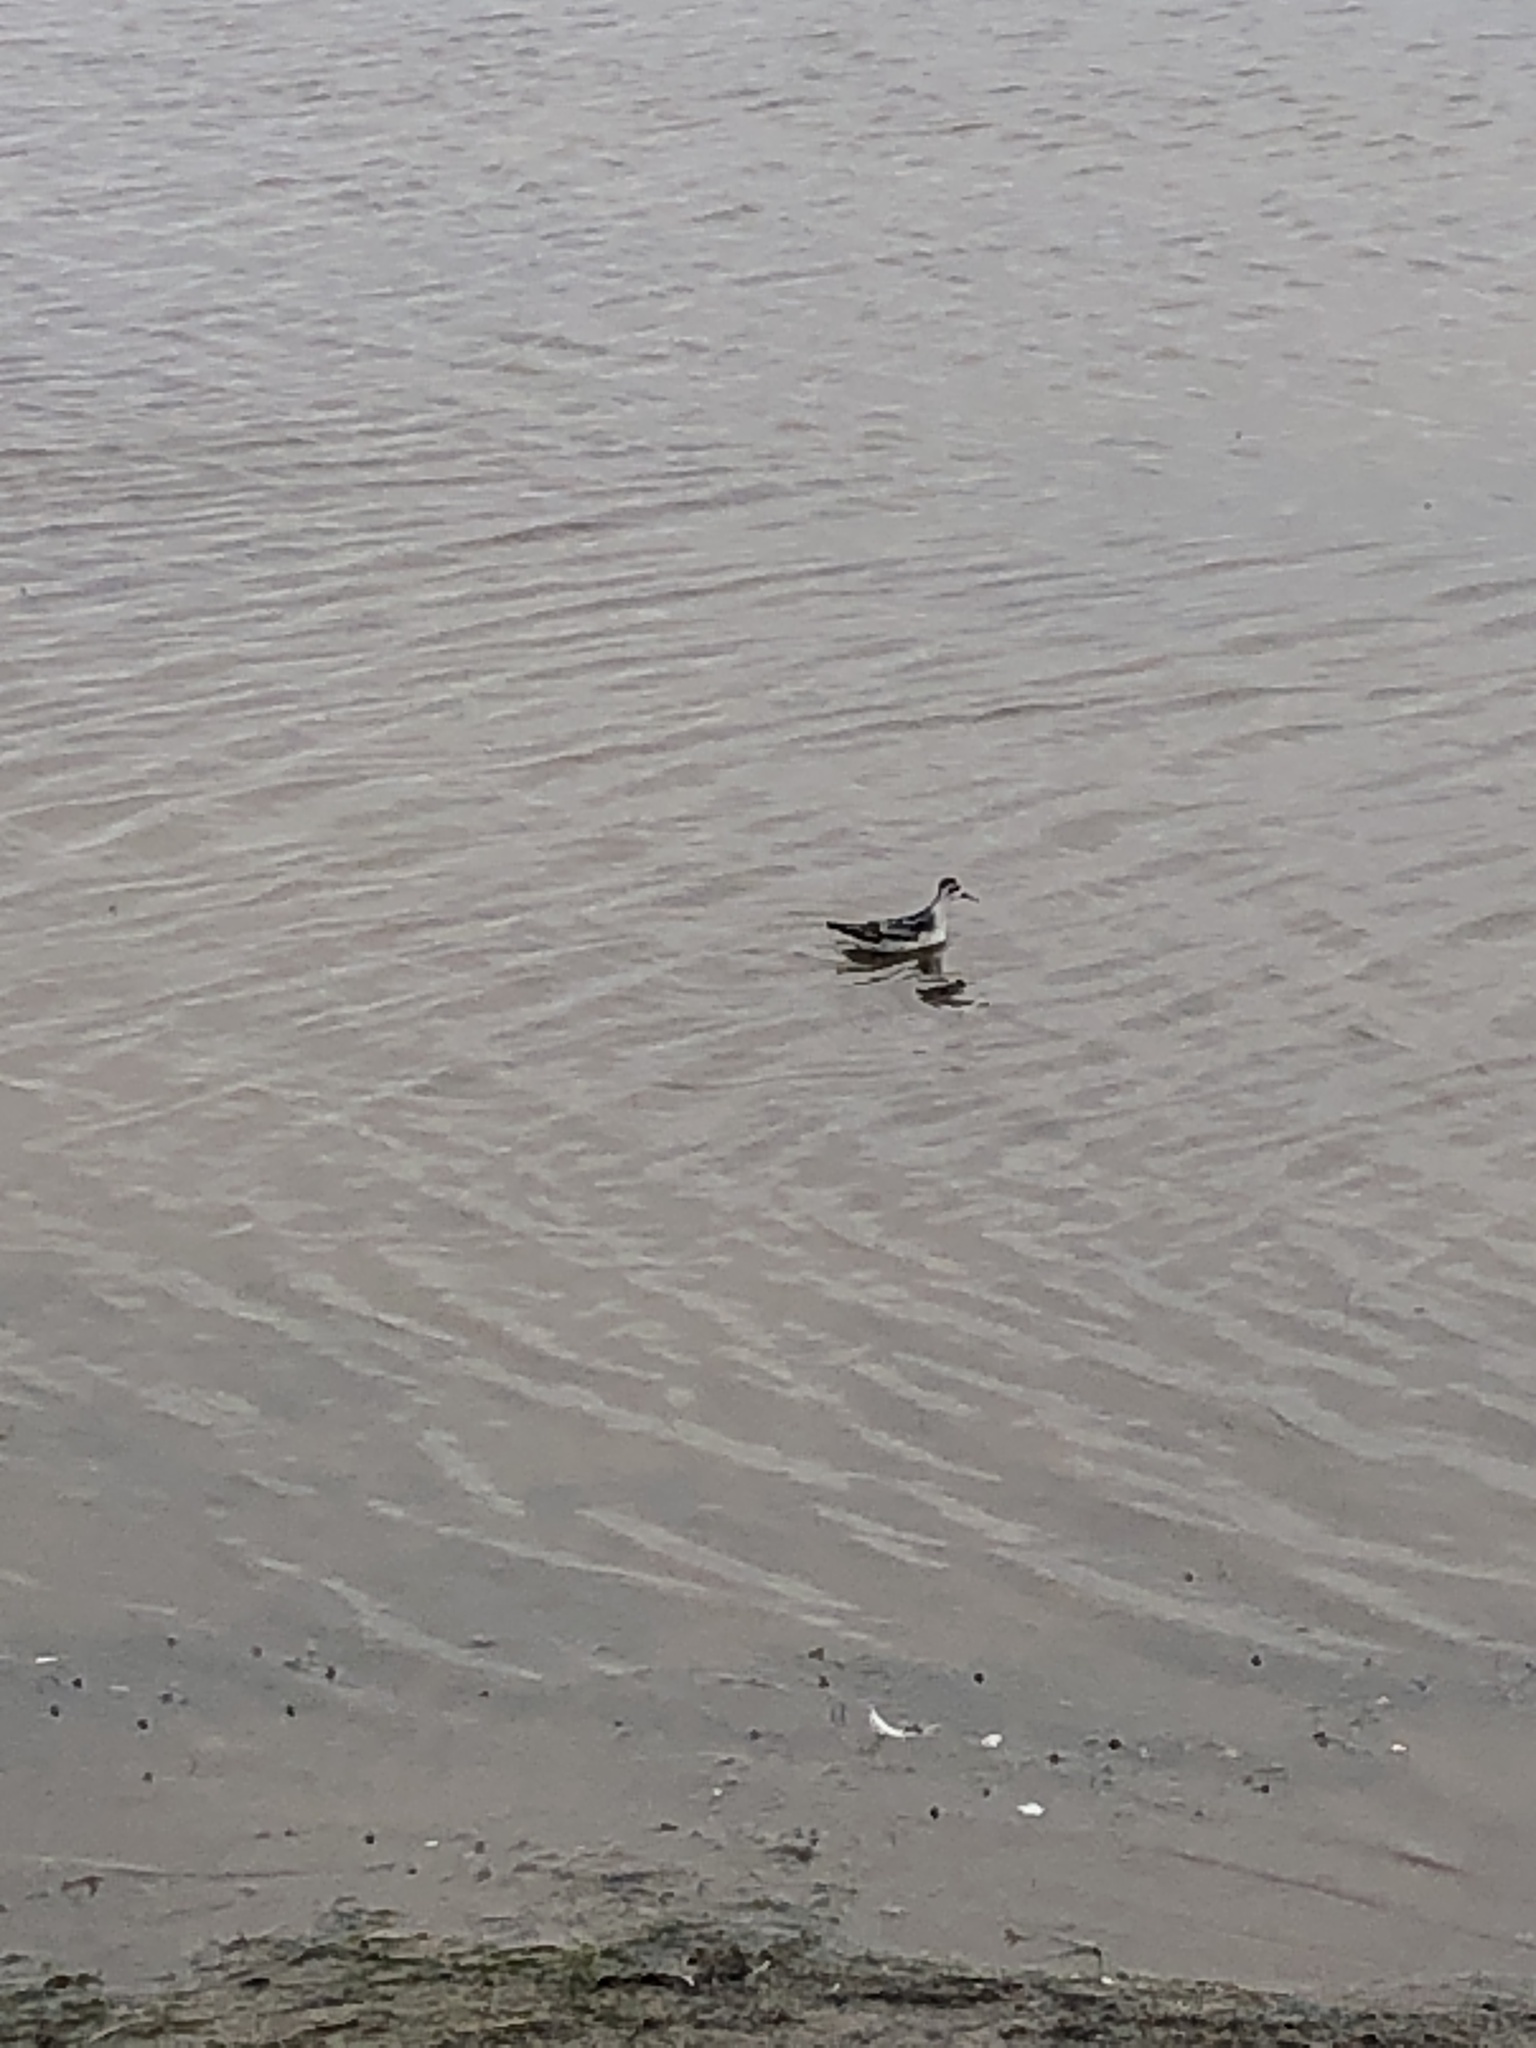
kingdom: Animalia
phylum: Chordata
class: Aves
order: Charadriiformes
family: Scolopacidae
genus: Phalaropus
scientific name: Phalaropus lobatus
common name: Red-necked phalarope
